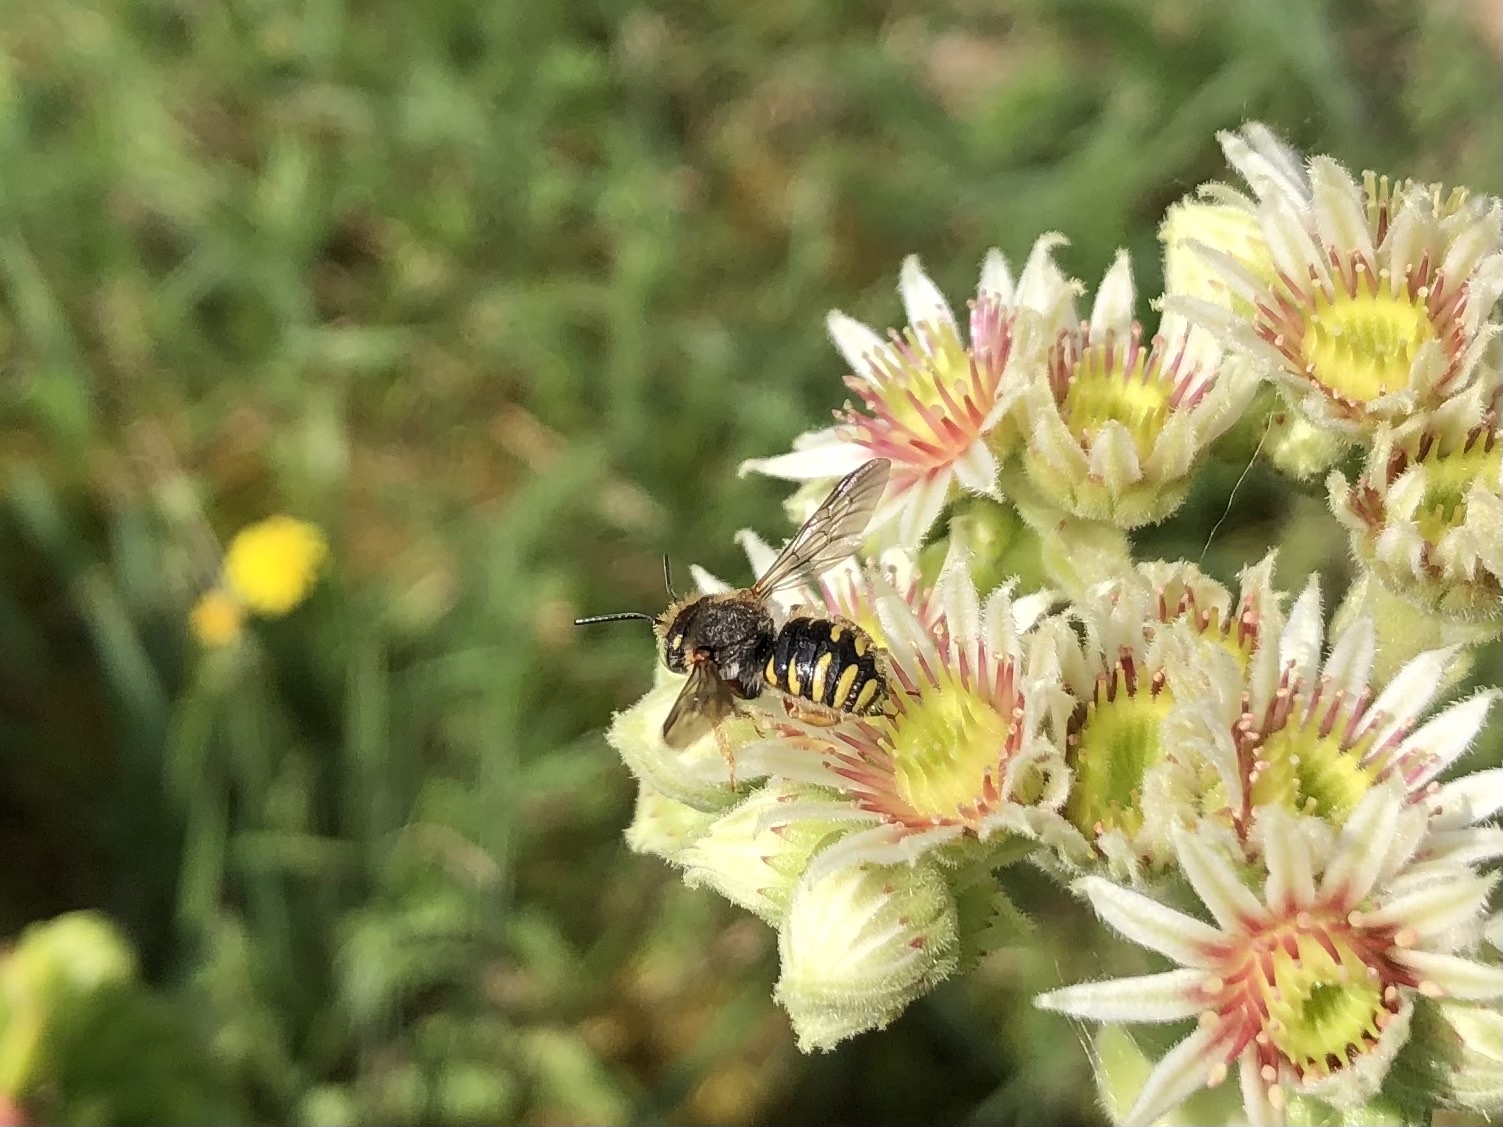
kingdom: Animalia
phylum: Arthropoda
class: Insecta
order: Hymenoptera
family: Megachilidae
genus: Anthidium
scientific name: Anthidium oblongatum
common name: Oblong wool carder bee
